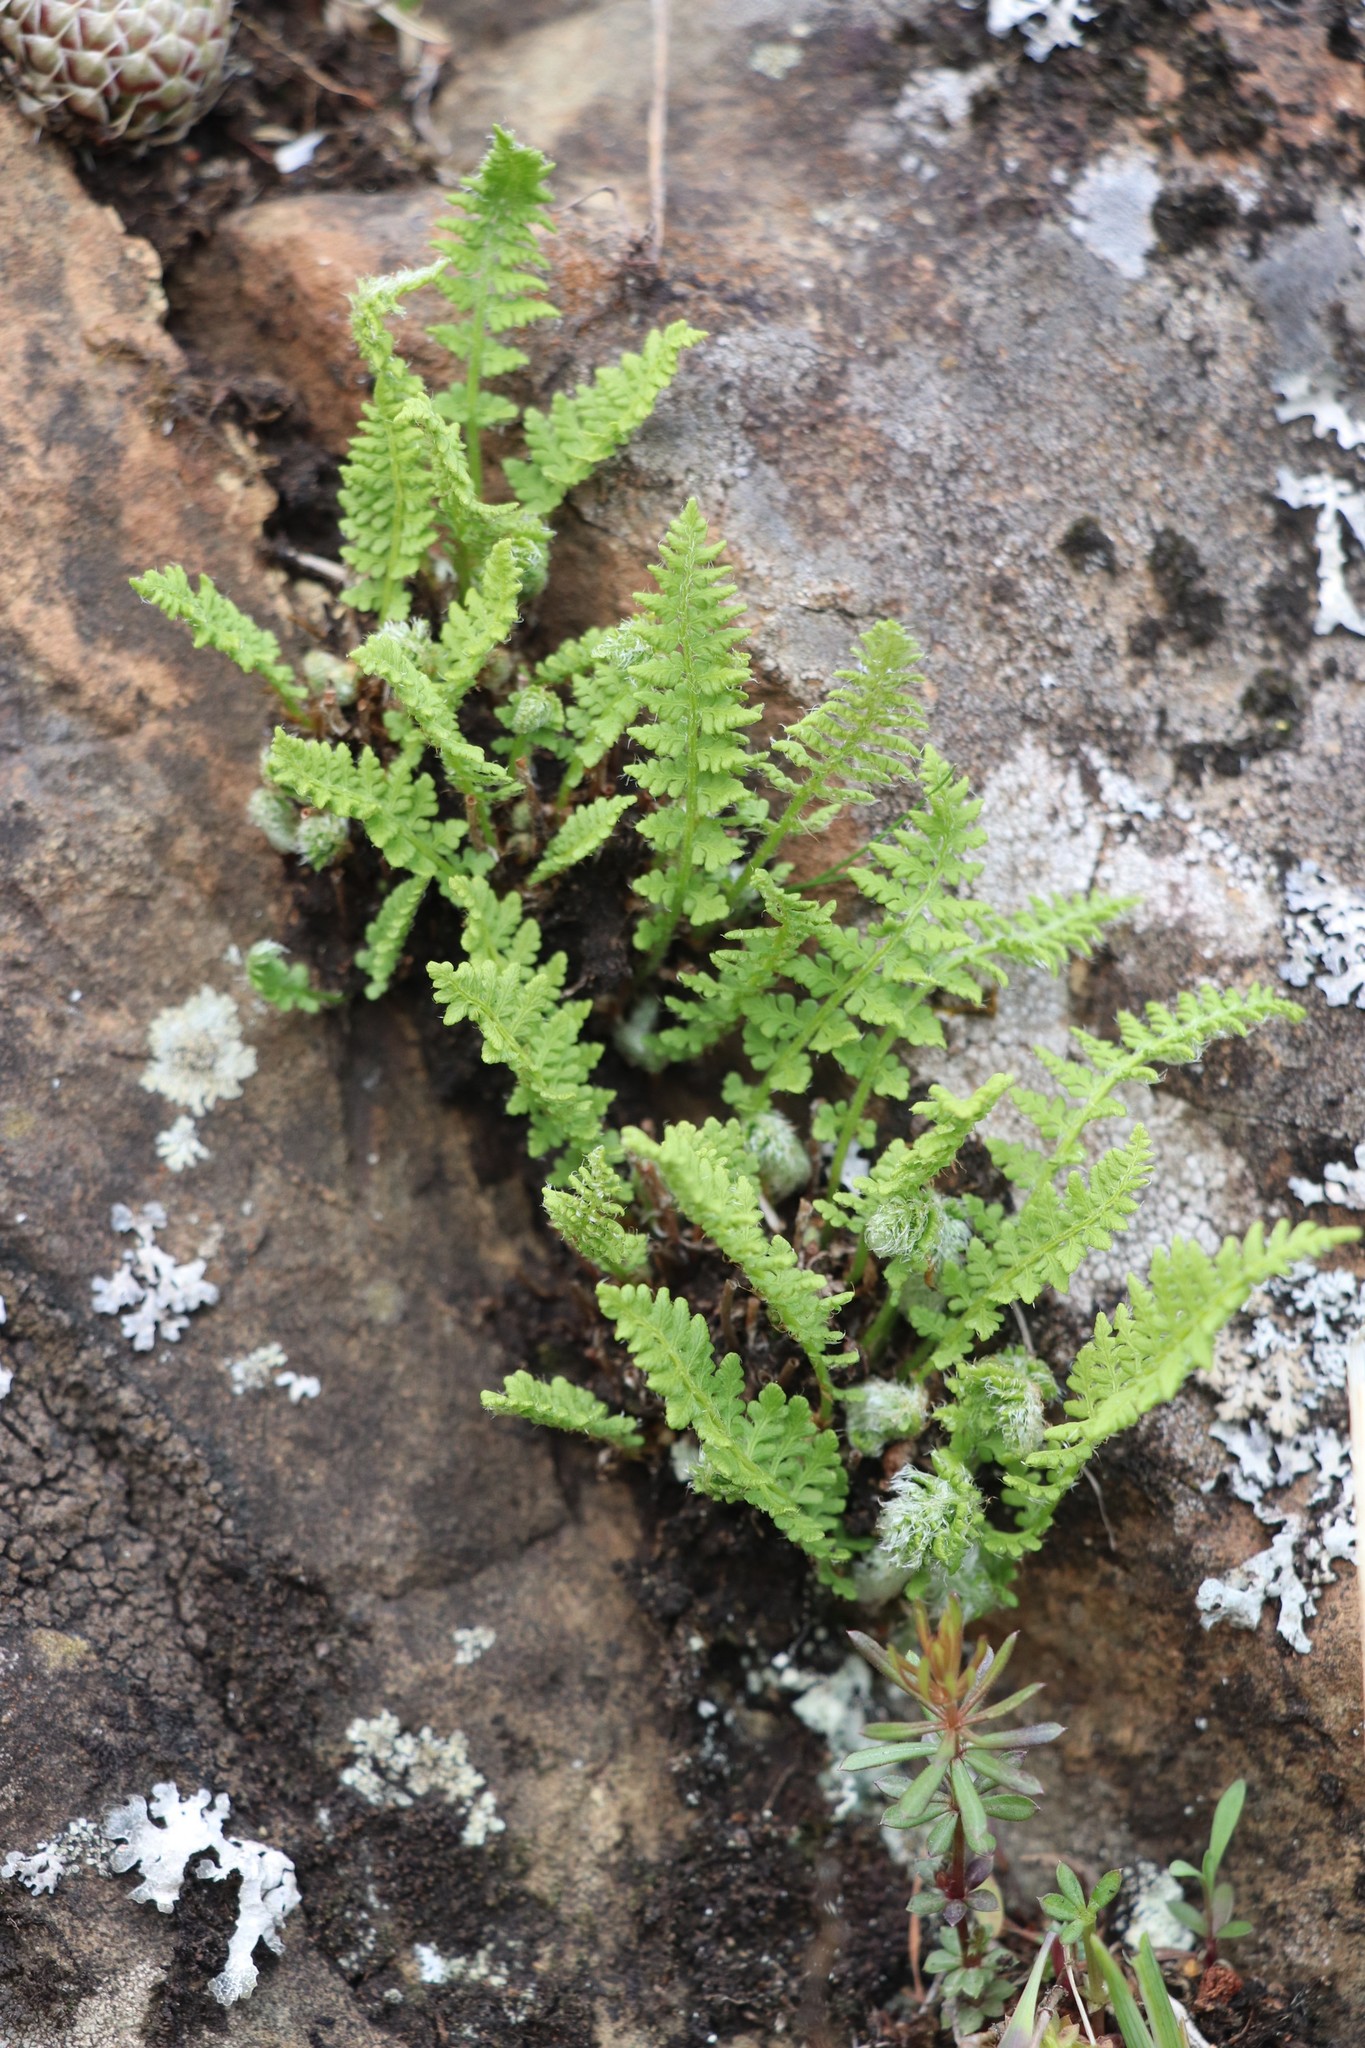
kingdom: Plantae
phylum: Tracheophyta
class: Polypodiopsida
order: Polypodiales
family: Woodsiaceae
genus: Woodsia
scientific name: Woodsia ilvensis
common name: Fragrant woodsia
